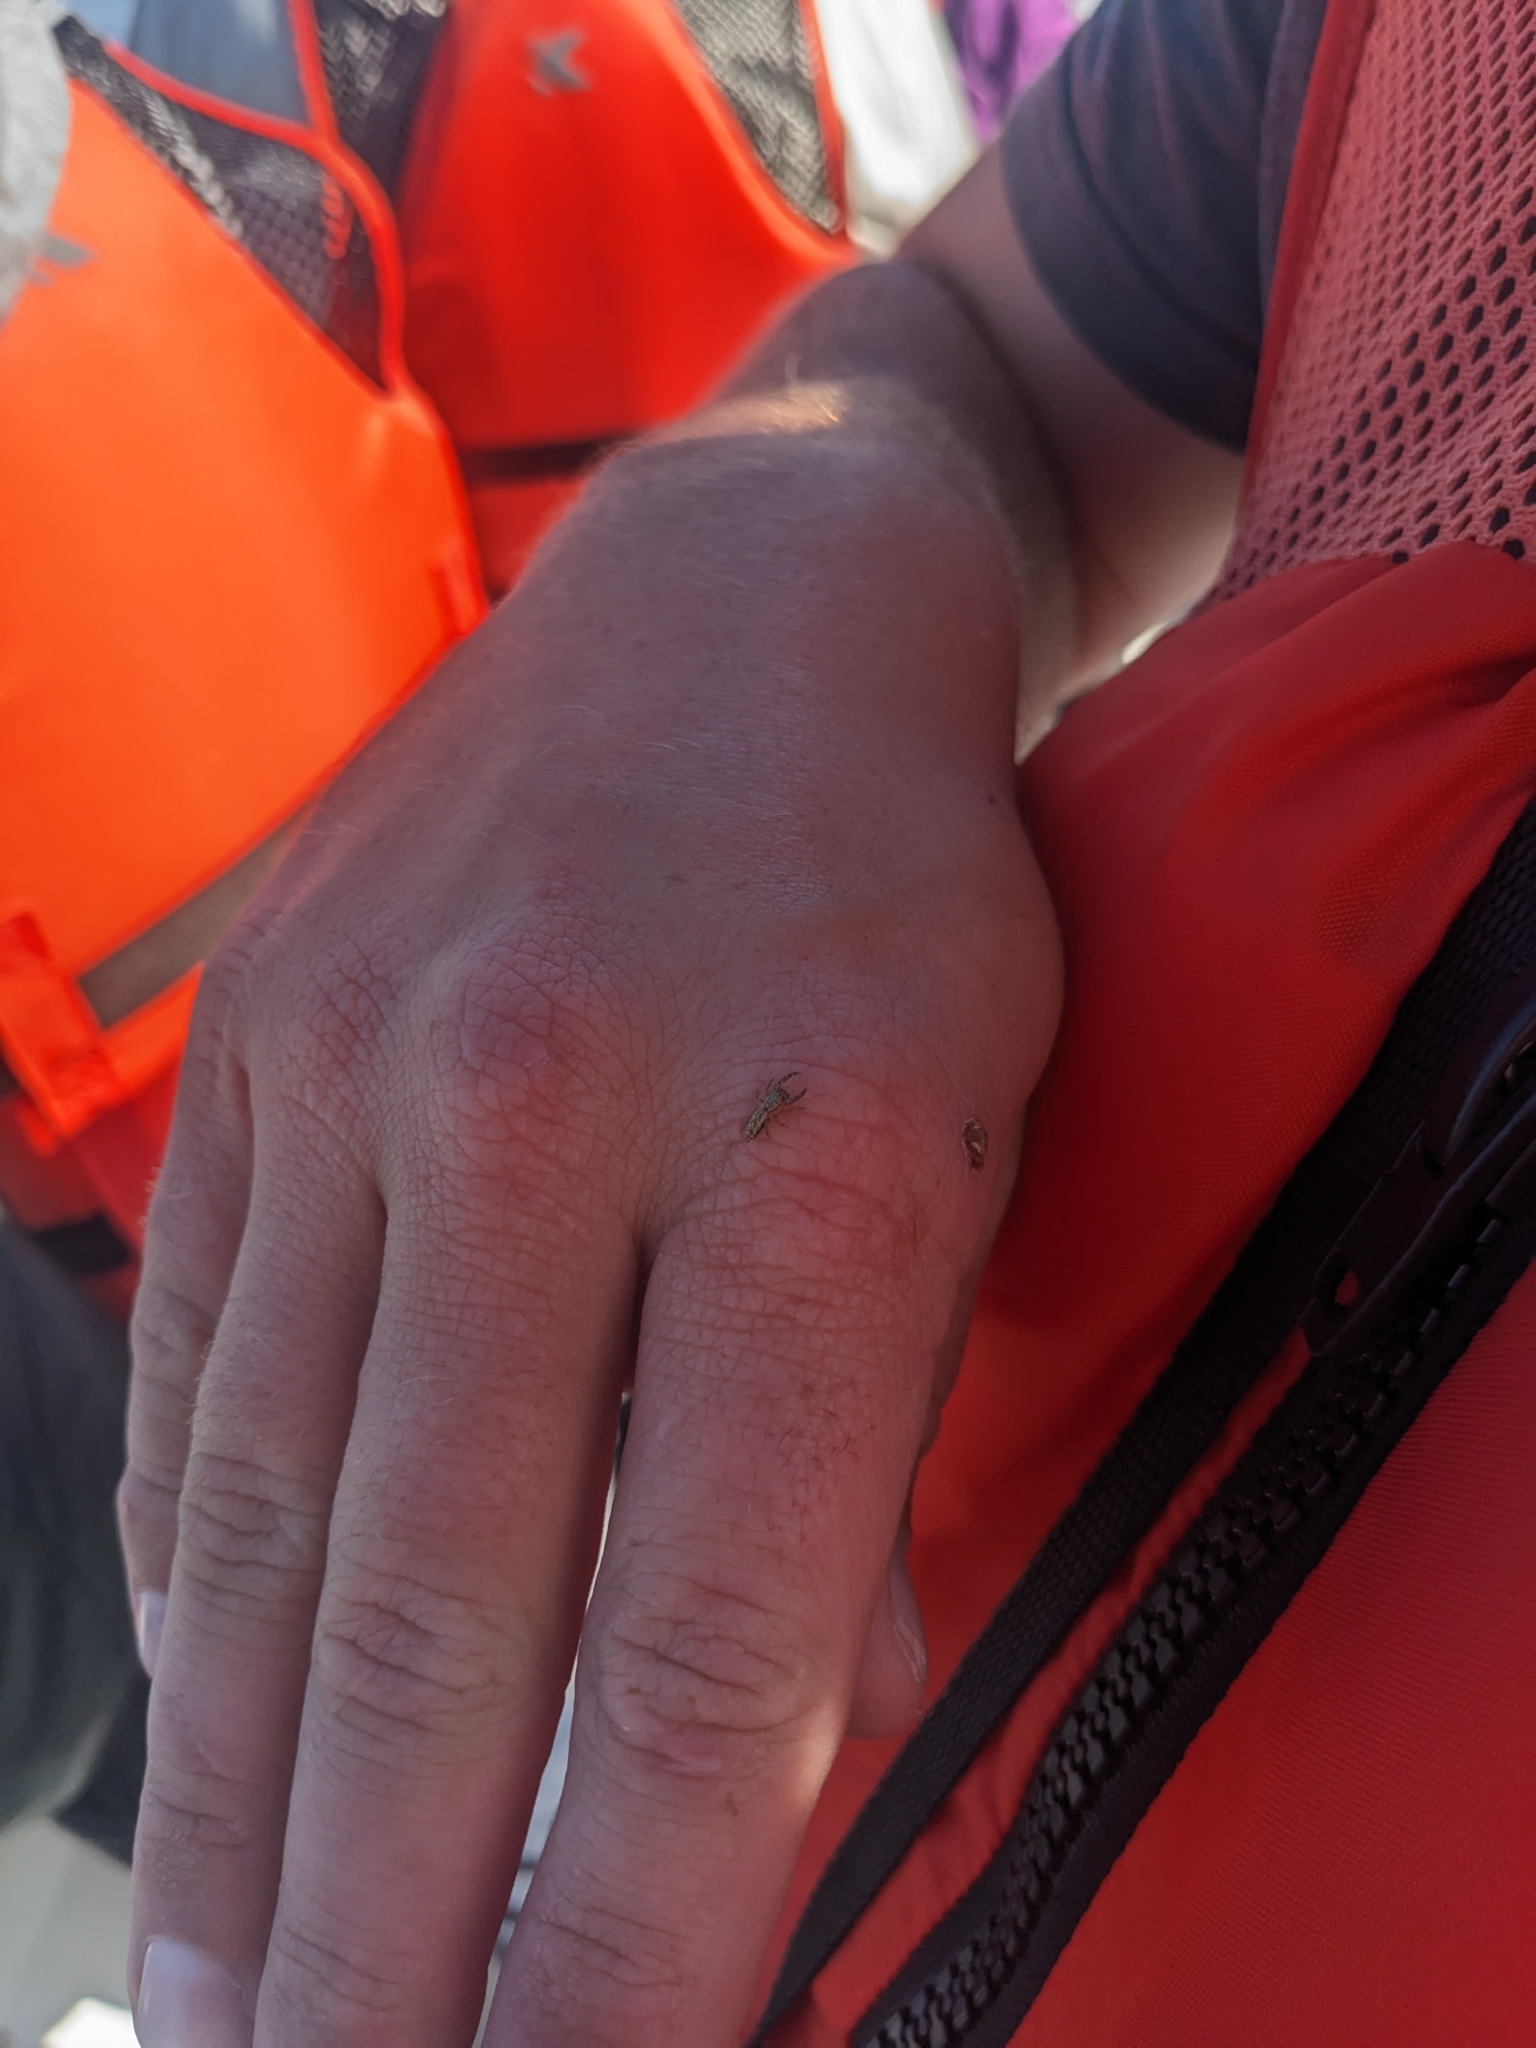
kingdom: Animalia
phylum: Arthropoda
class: Arachnida
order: Araneae
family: Salticidae
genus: Hentzia
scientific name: Hentzia
